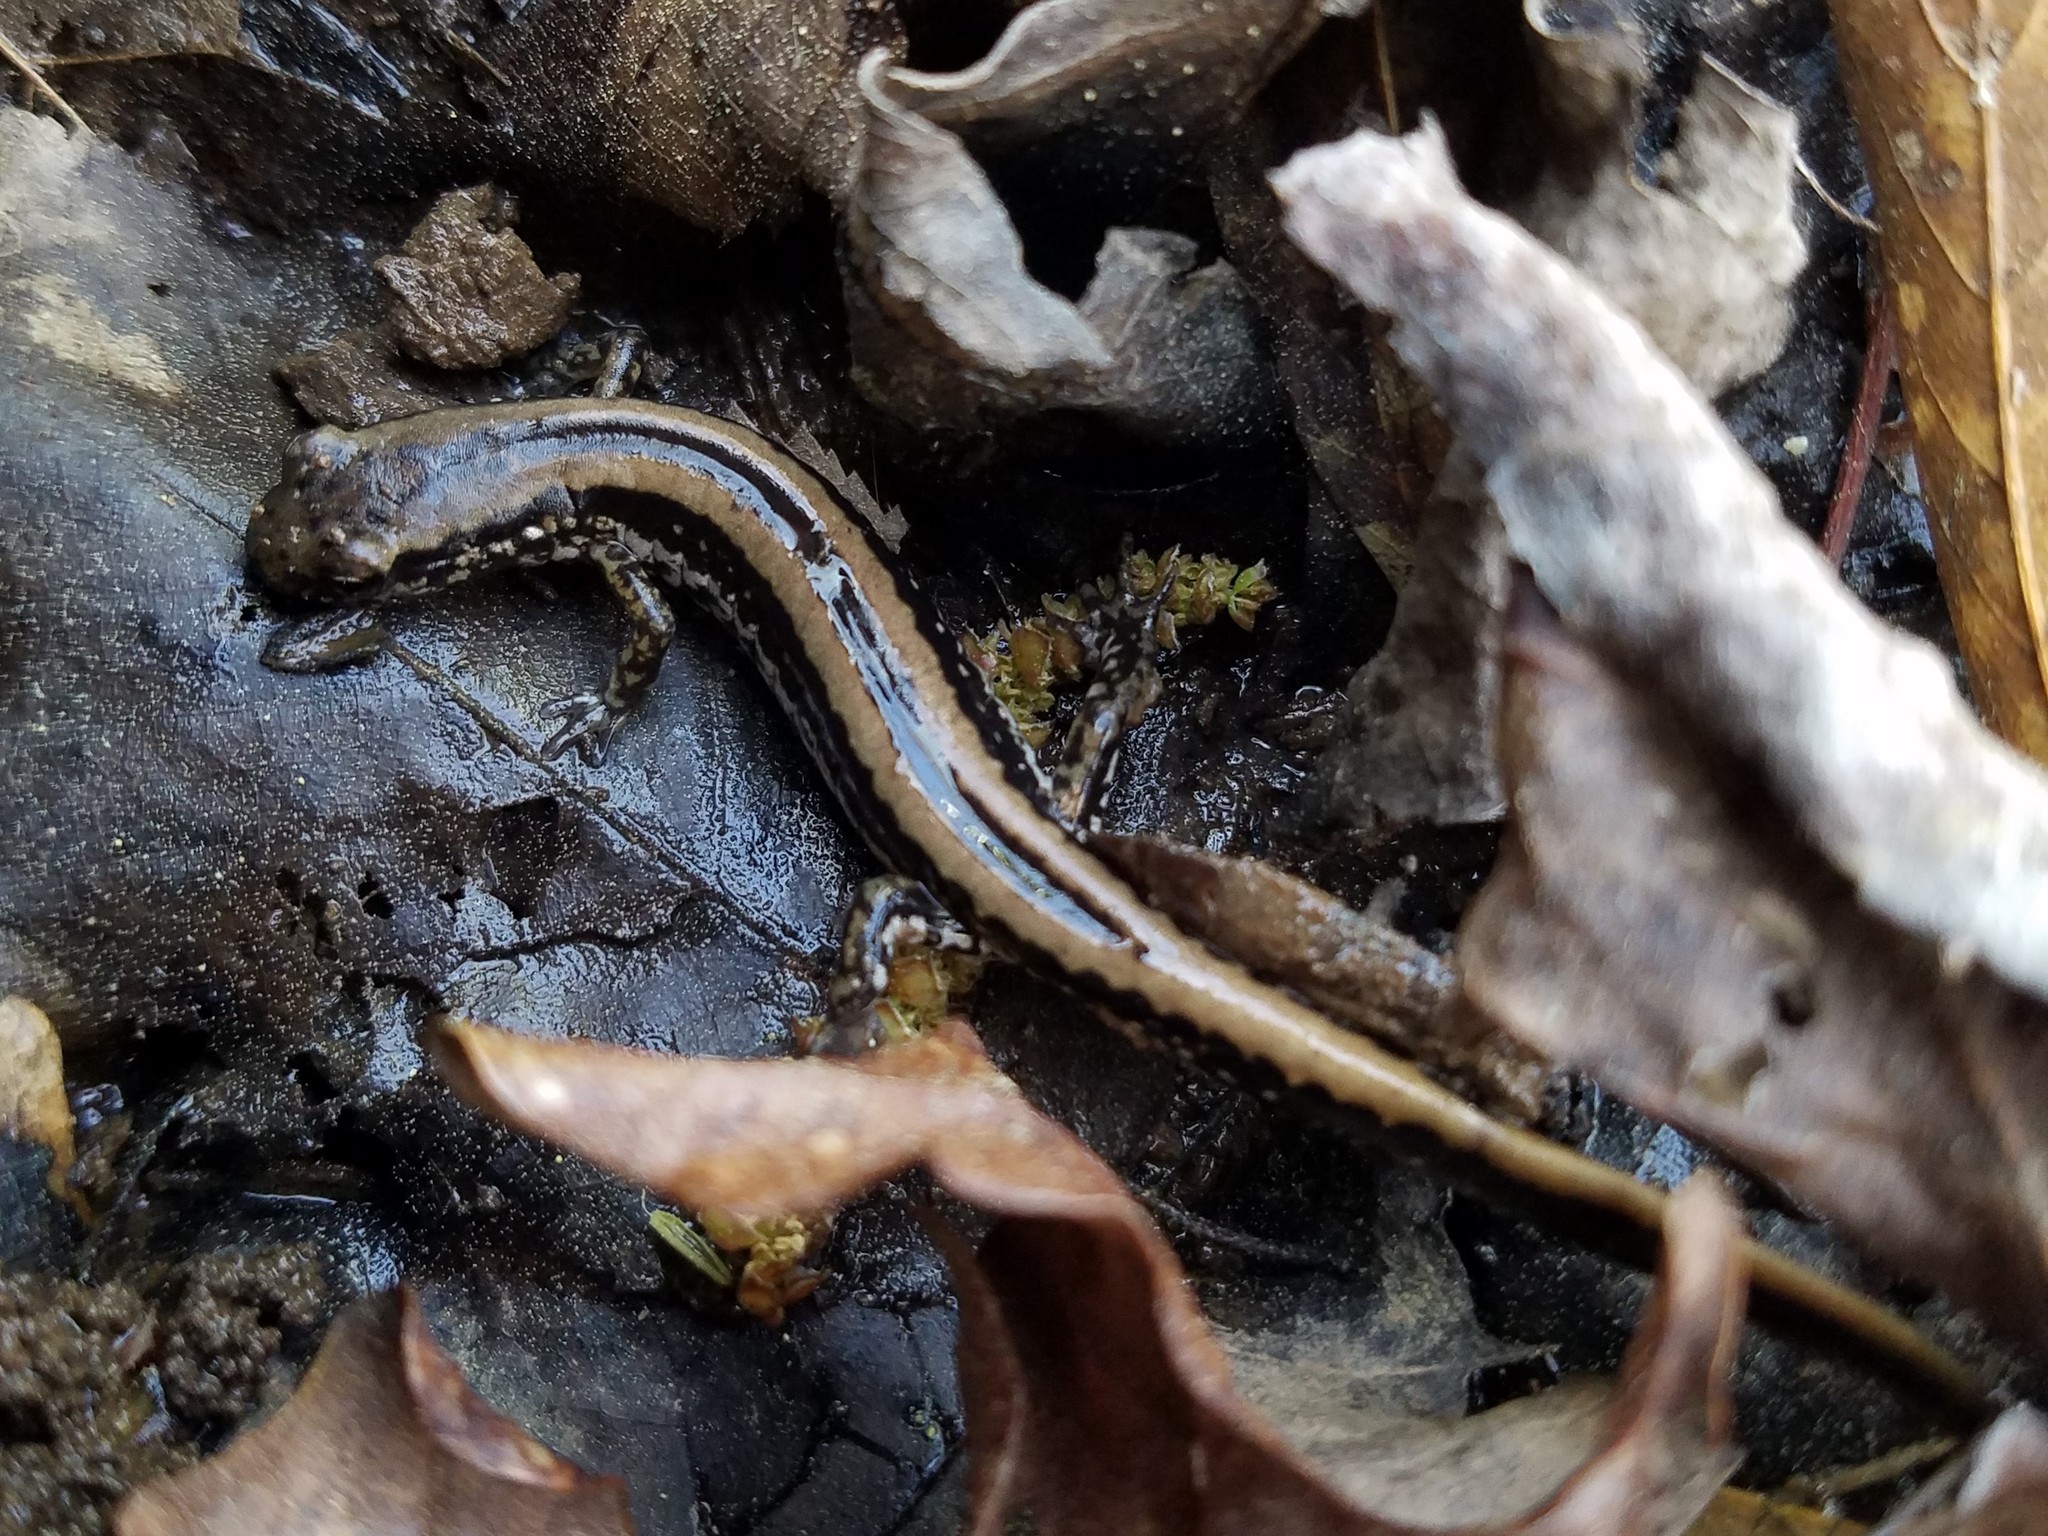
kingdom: Animalia
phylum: Chordata
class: Amphibia
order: Caudata
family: Plethodontidae
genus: Eurycea
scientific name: Eurycea guttolineata
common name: Three-lined salamander
